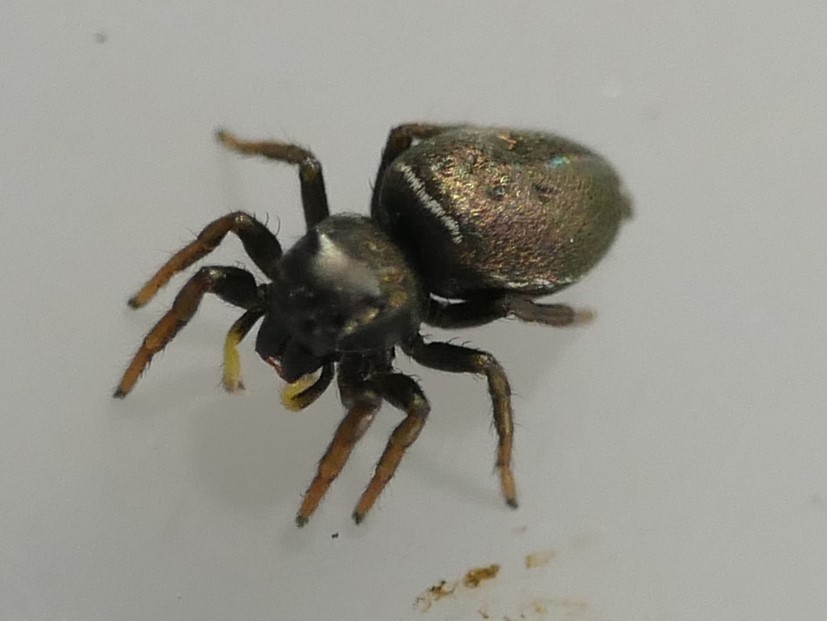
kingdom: Animalia
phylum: Arthropoda
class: Arachnida
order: Araneae
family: Salticidae
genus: Heliophanus
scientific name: Heliophanus lineiventris
